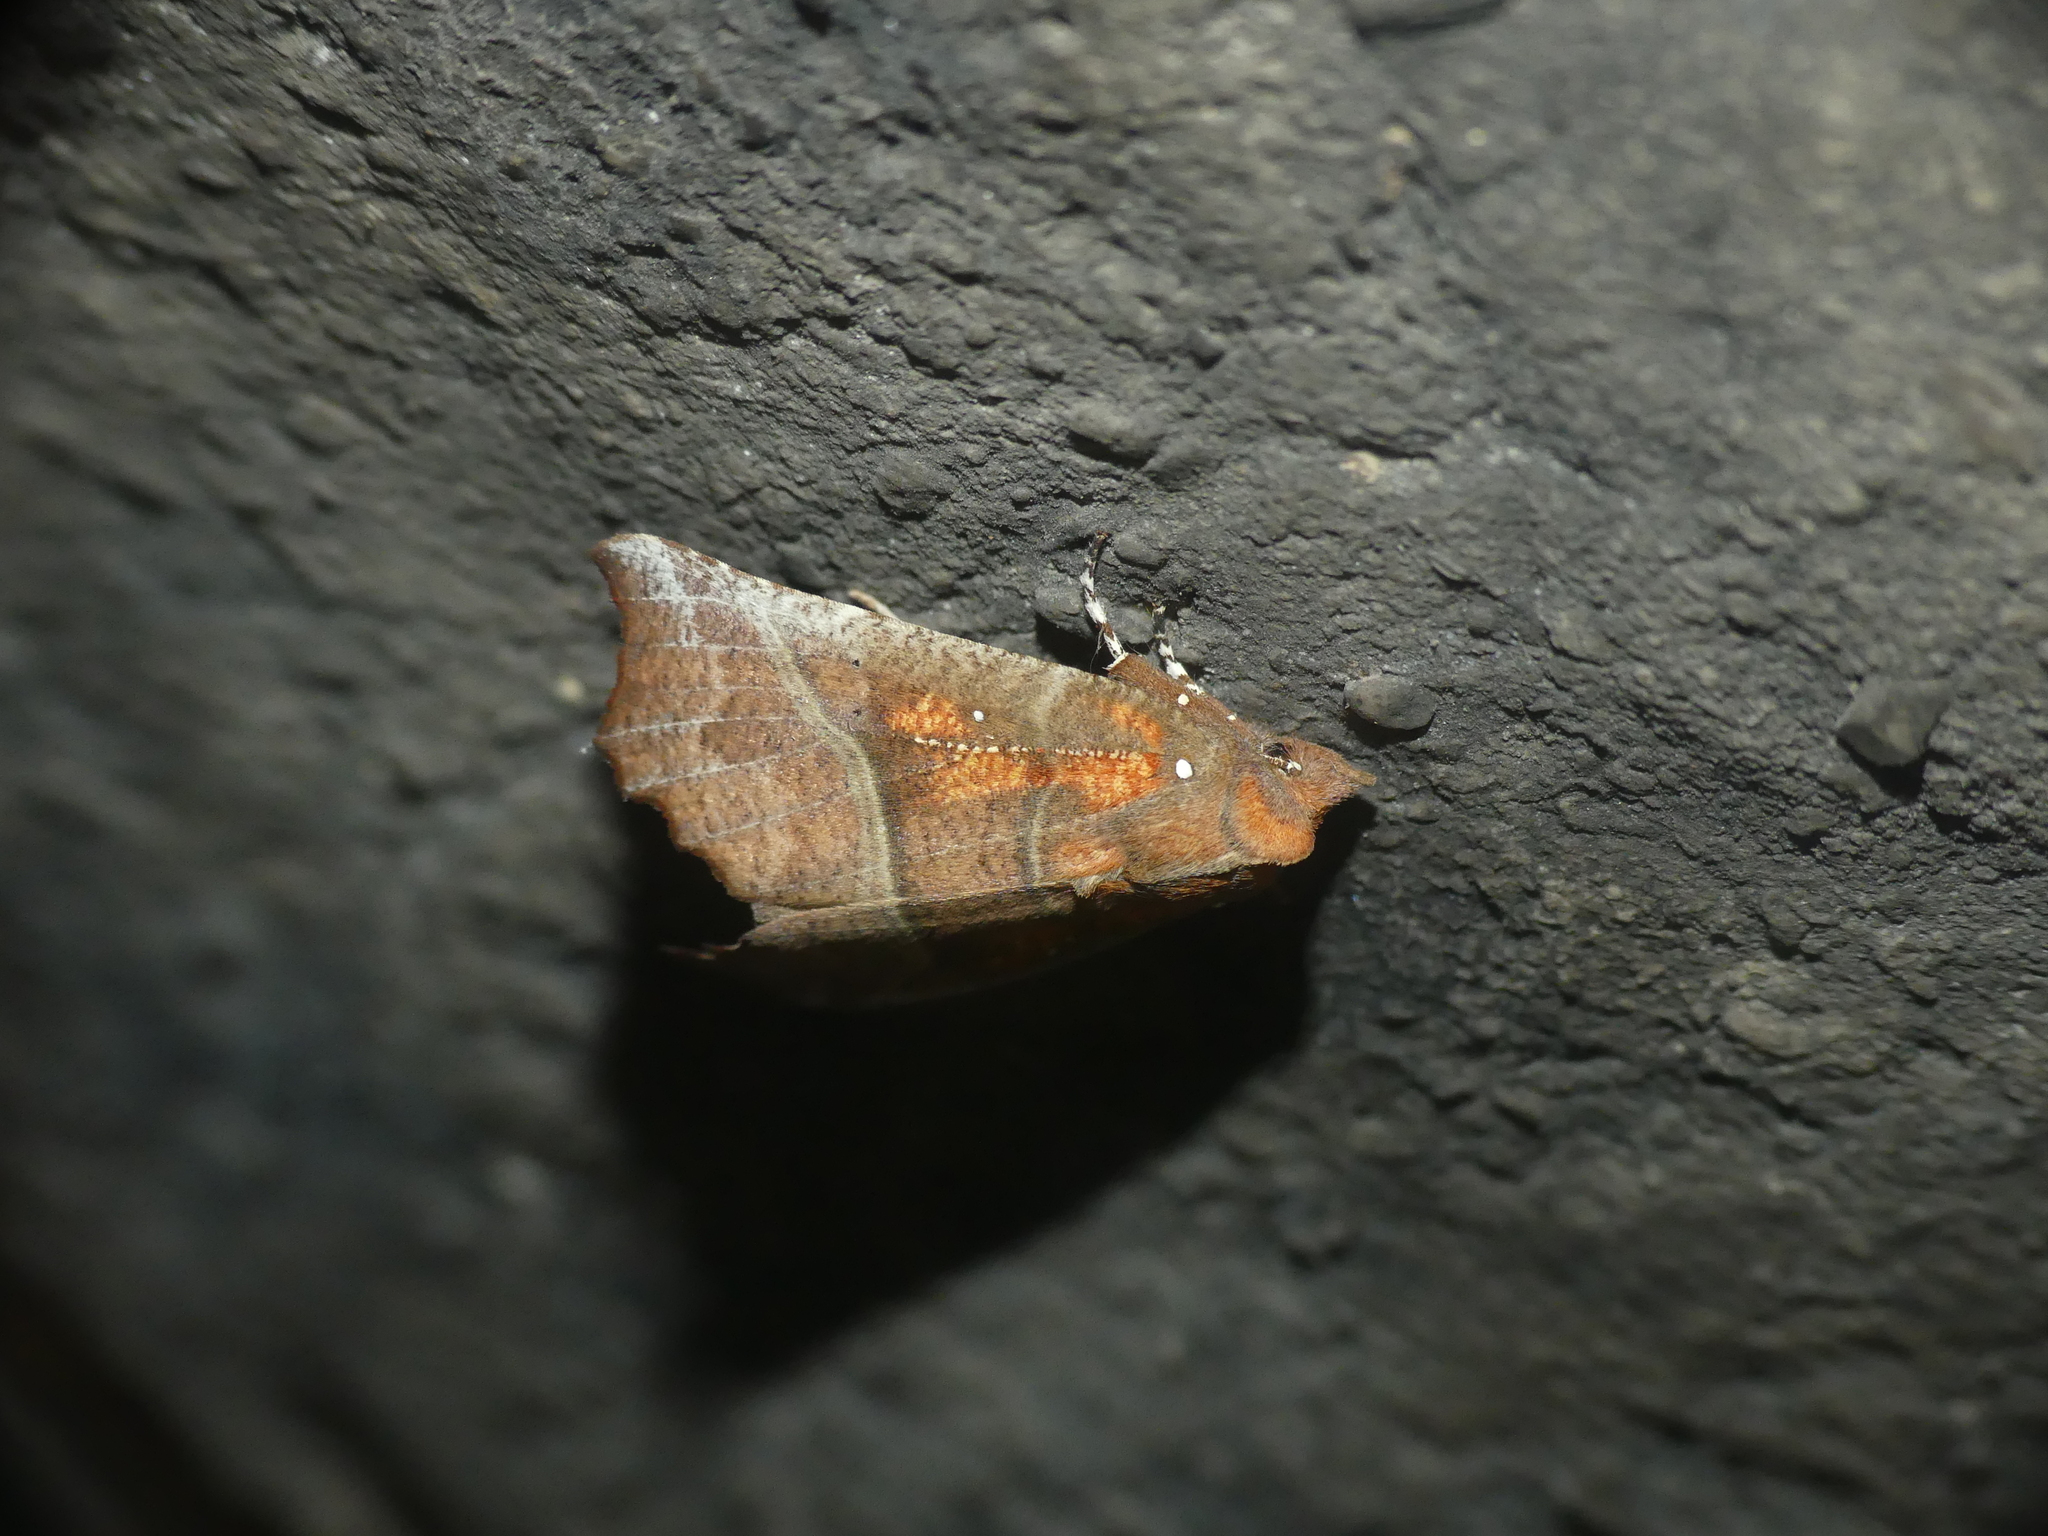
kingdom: Animalia
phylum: Arthropoda
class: Insecta
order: Lepidoptera
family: Erebidae
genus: Scoliopteryx
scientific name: Scoliopteryx libatrix
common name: Herald
